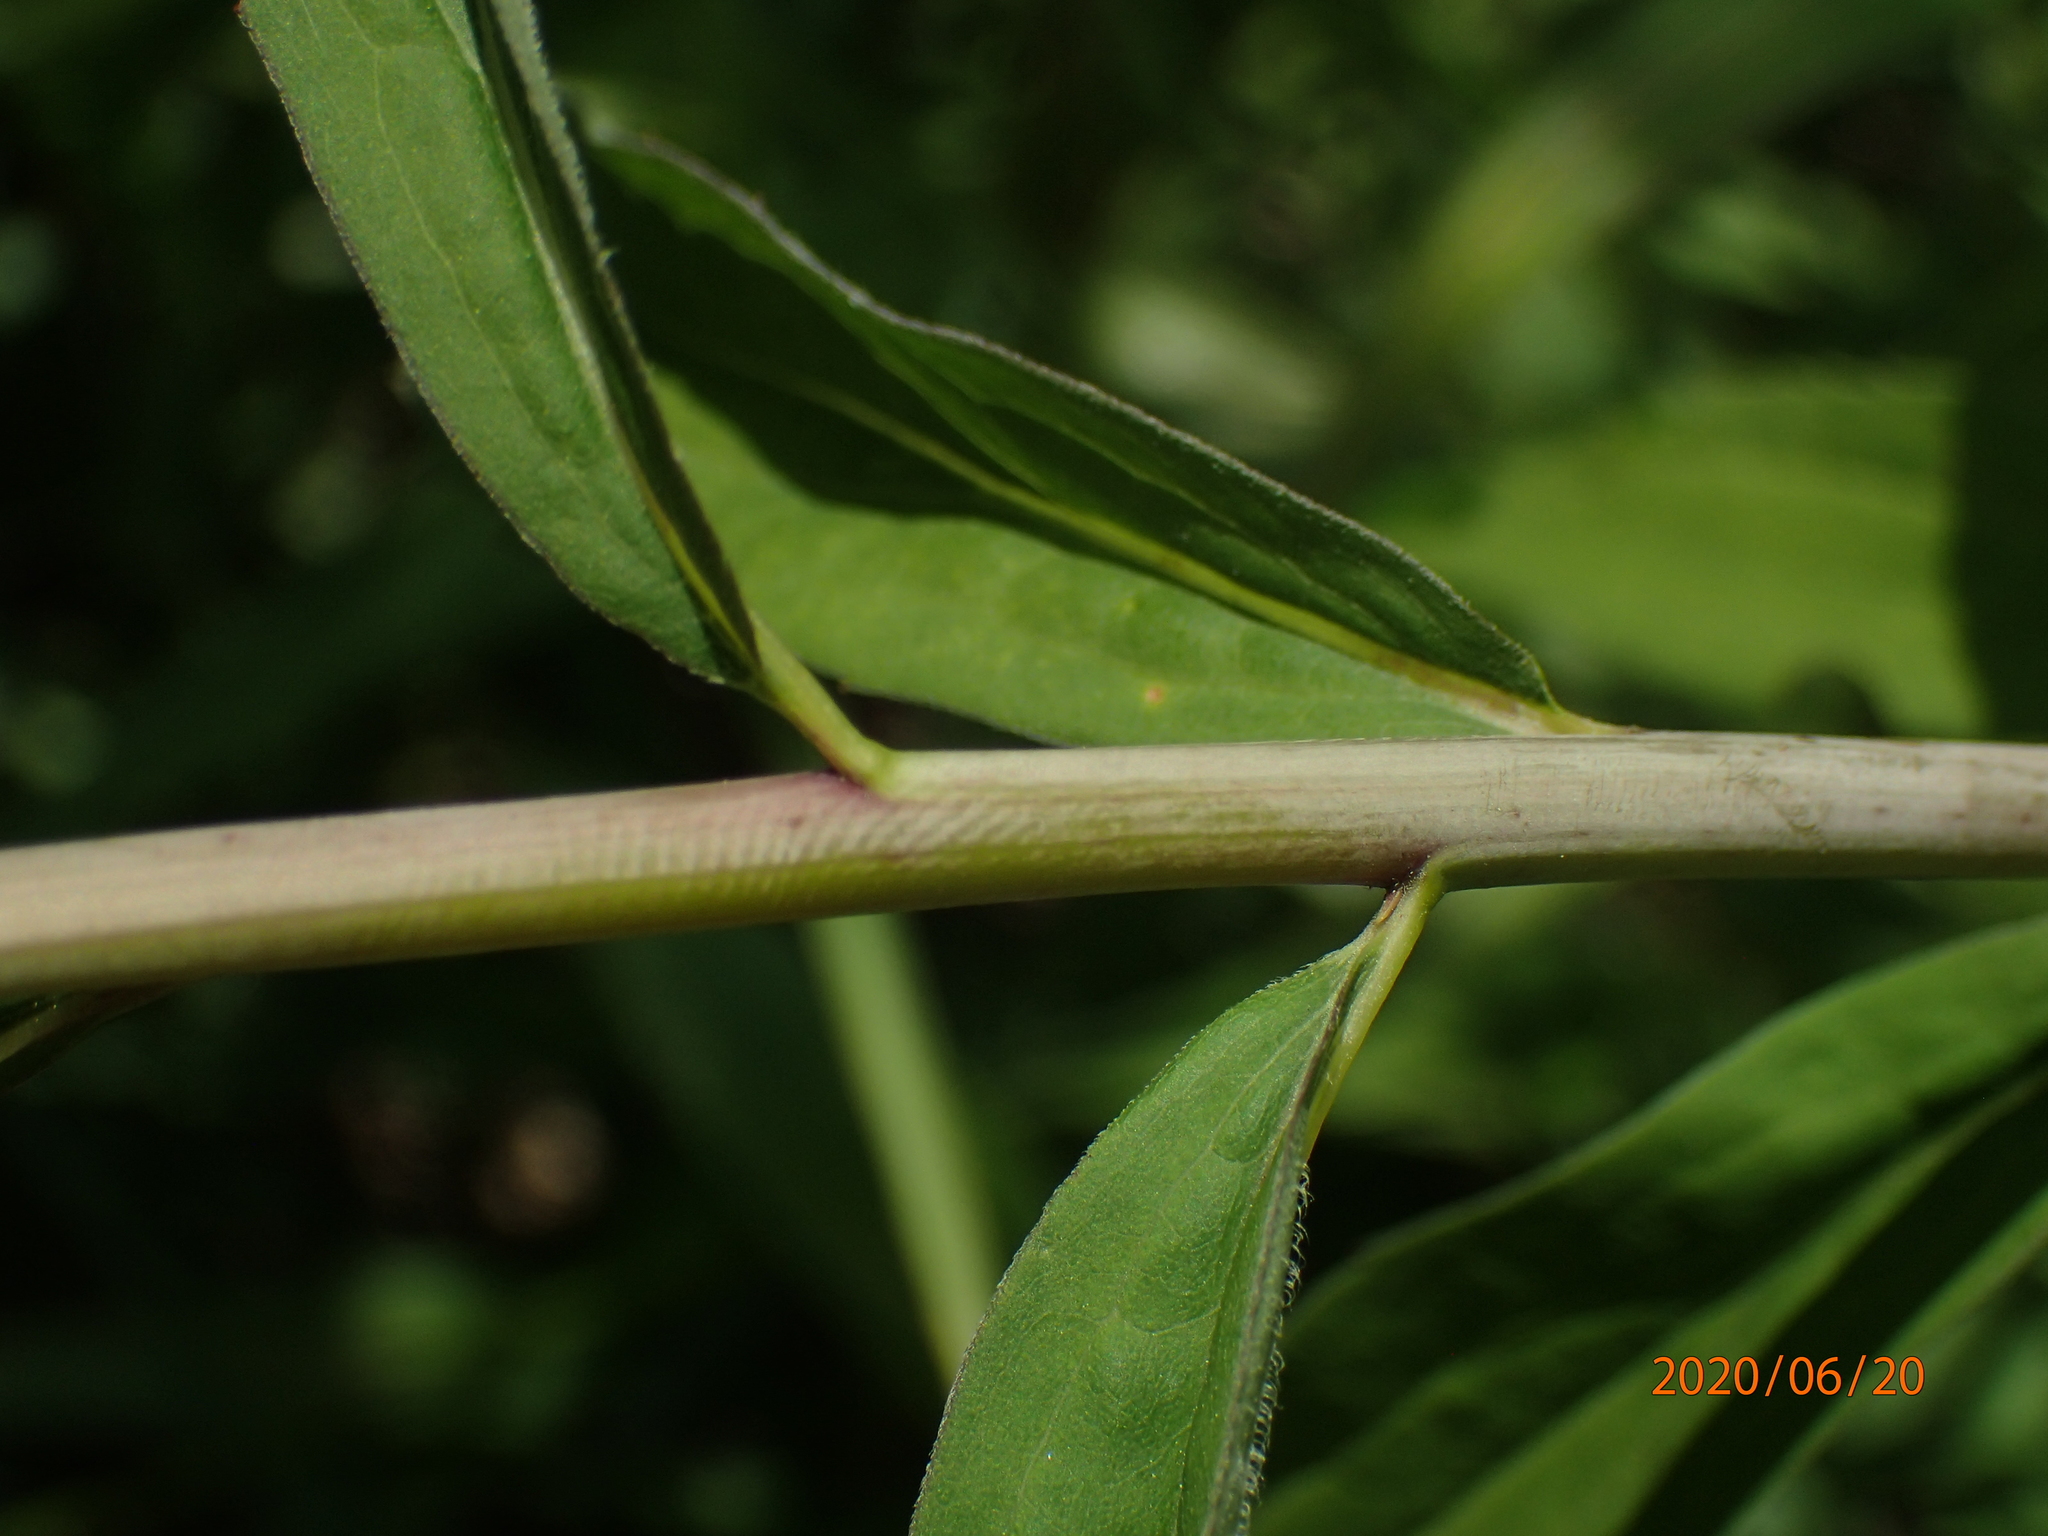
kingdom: Plantae
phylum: Tracheophyta
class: Magnoliopsida
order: Asterales
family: Asteraceae
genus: Solidago
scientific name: Solidago gigantea
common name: Giant goldenrod
